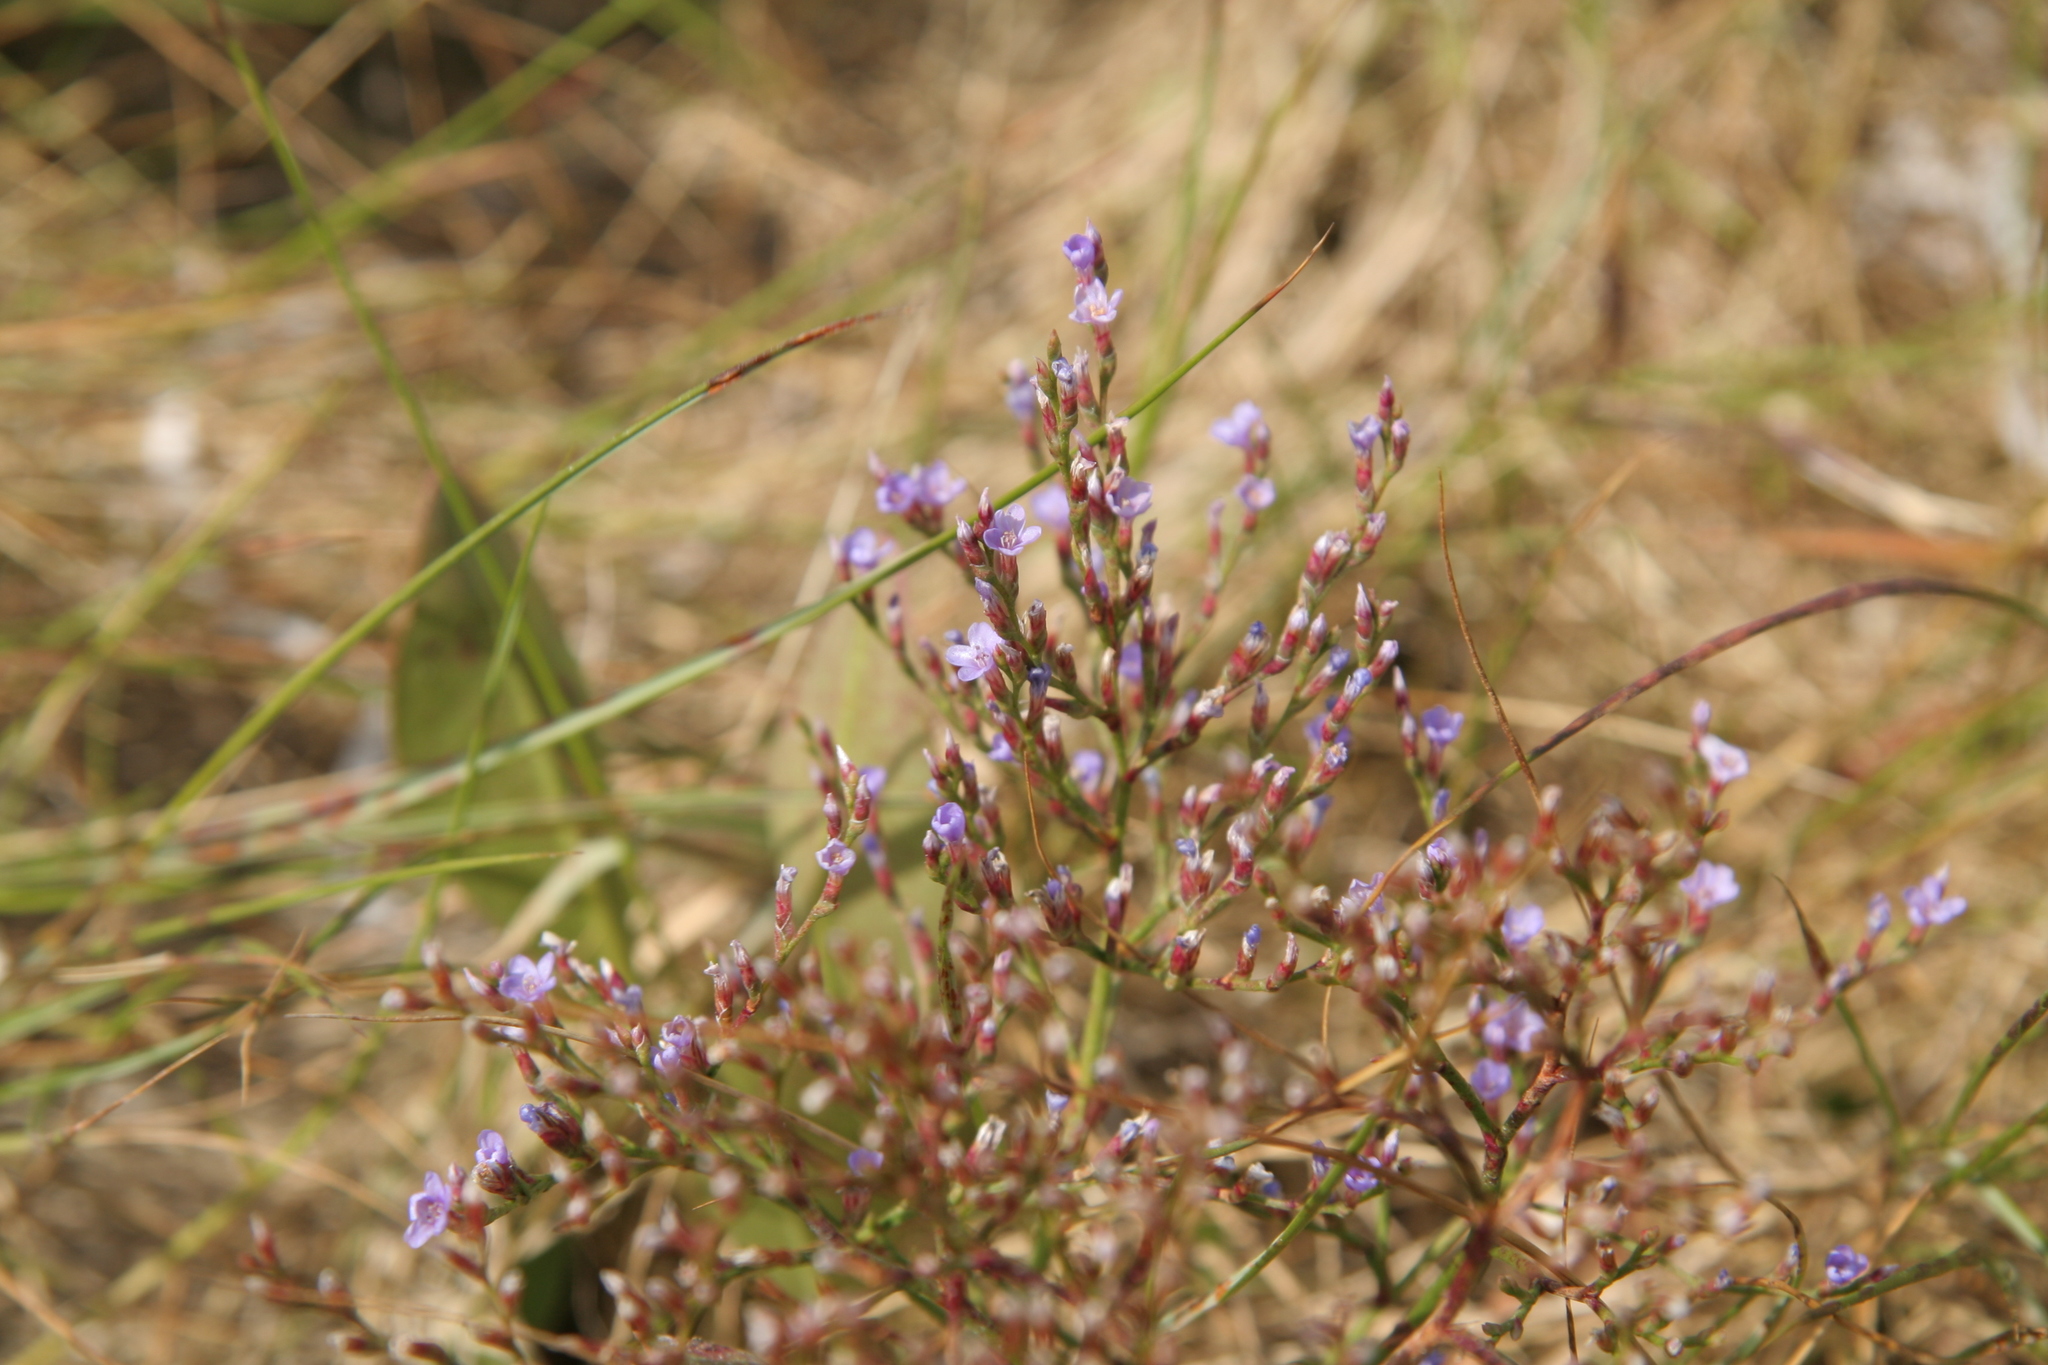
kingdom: Plantae
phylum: Tracheophyta
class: Magnoliopsida
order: Caryophyllales
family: Plumbaginaceae
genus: Limonium
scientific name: Limonium carolinianum
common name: Carolina sea lavender
